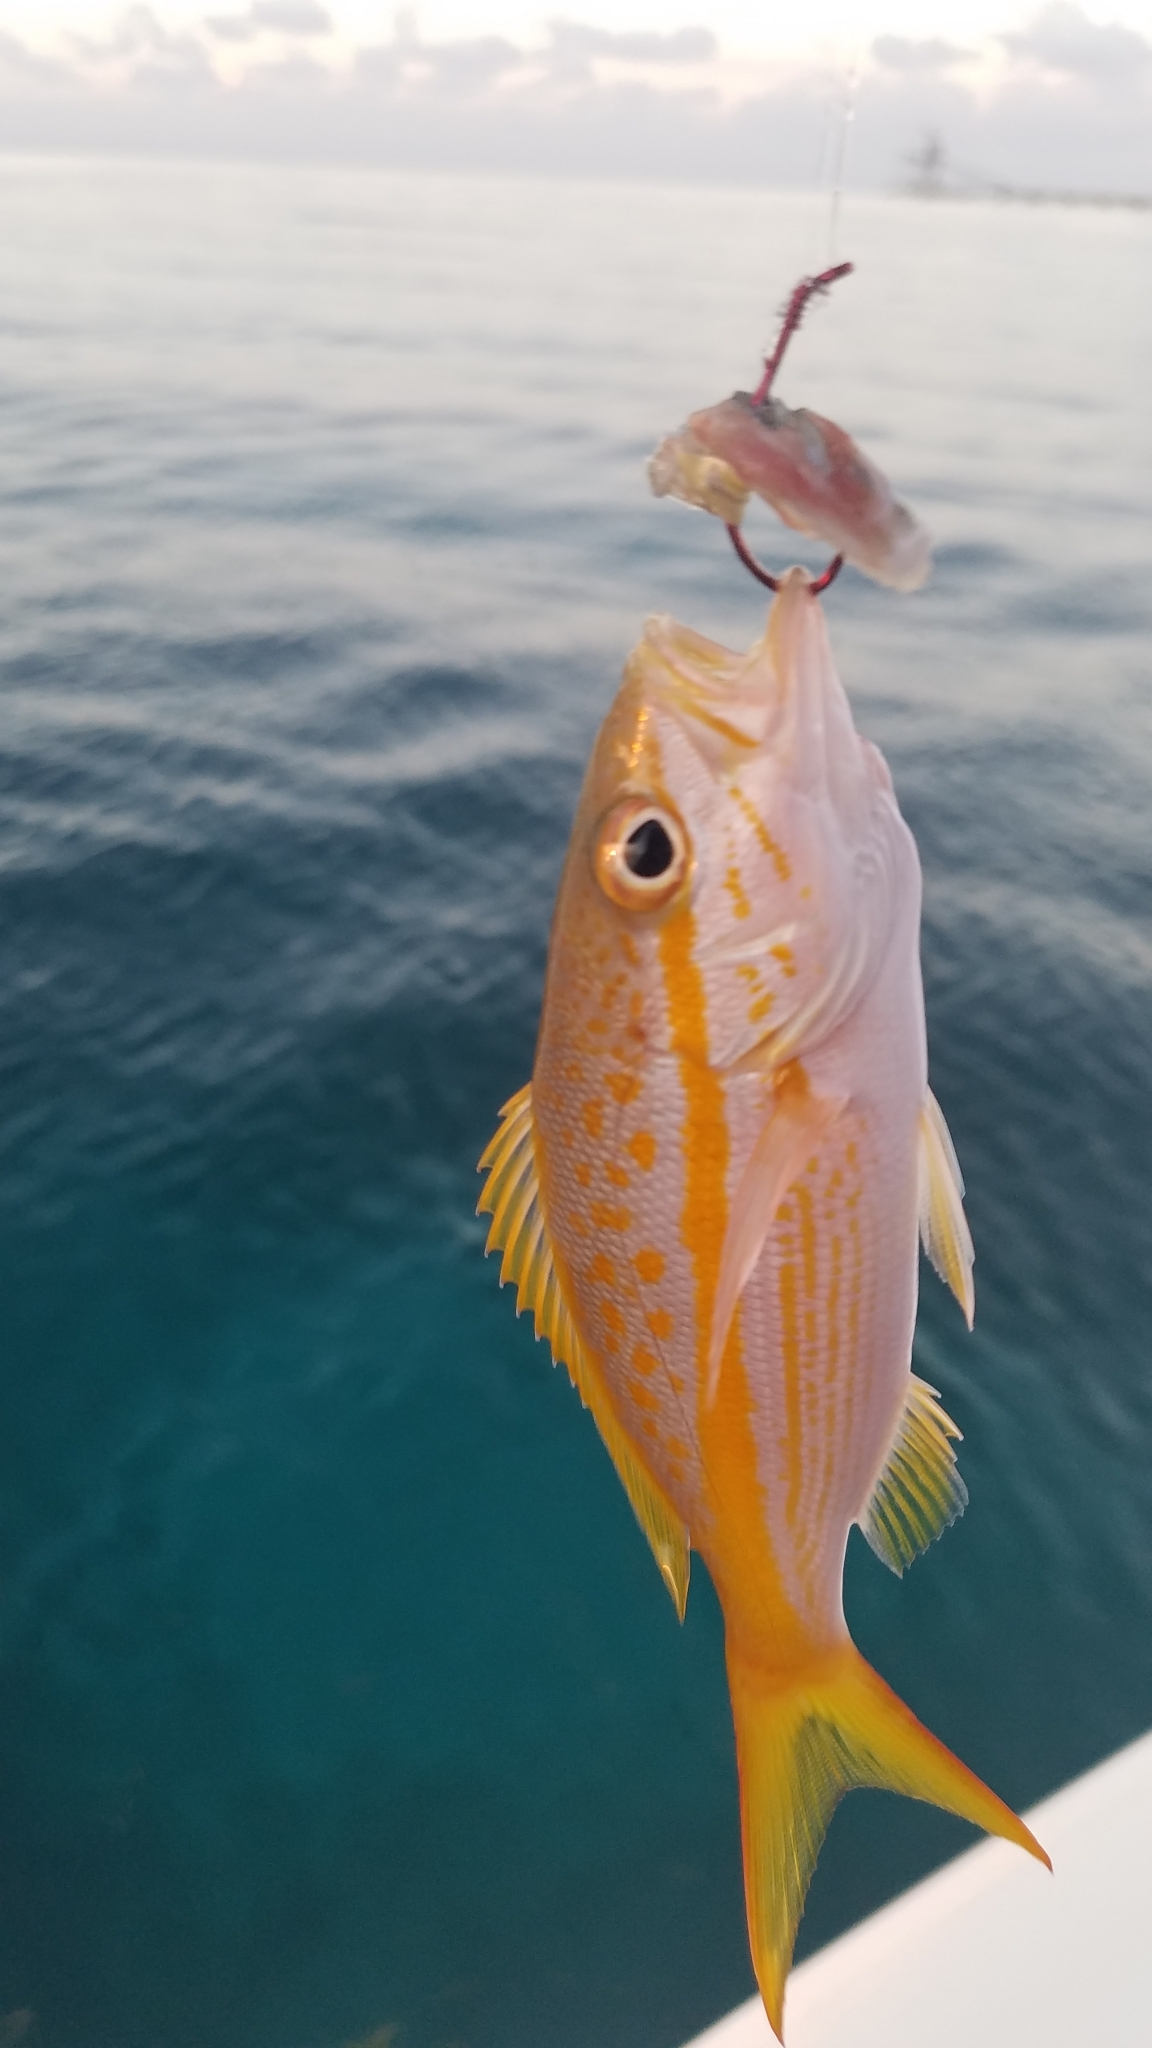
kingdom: Animalia
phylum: Chordata
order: Perciformes
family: Lutjanidae
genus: Ocyurus
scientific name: Ocyurus chrysurus
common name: Yellowtail snapper
